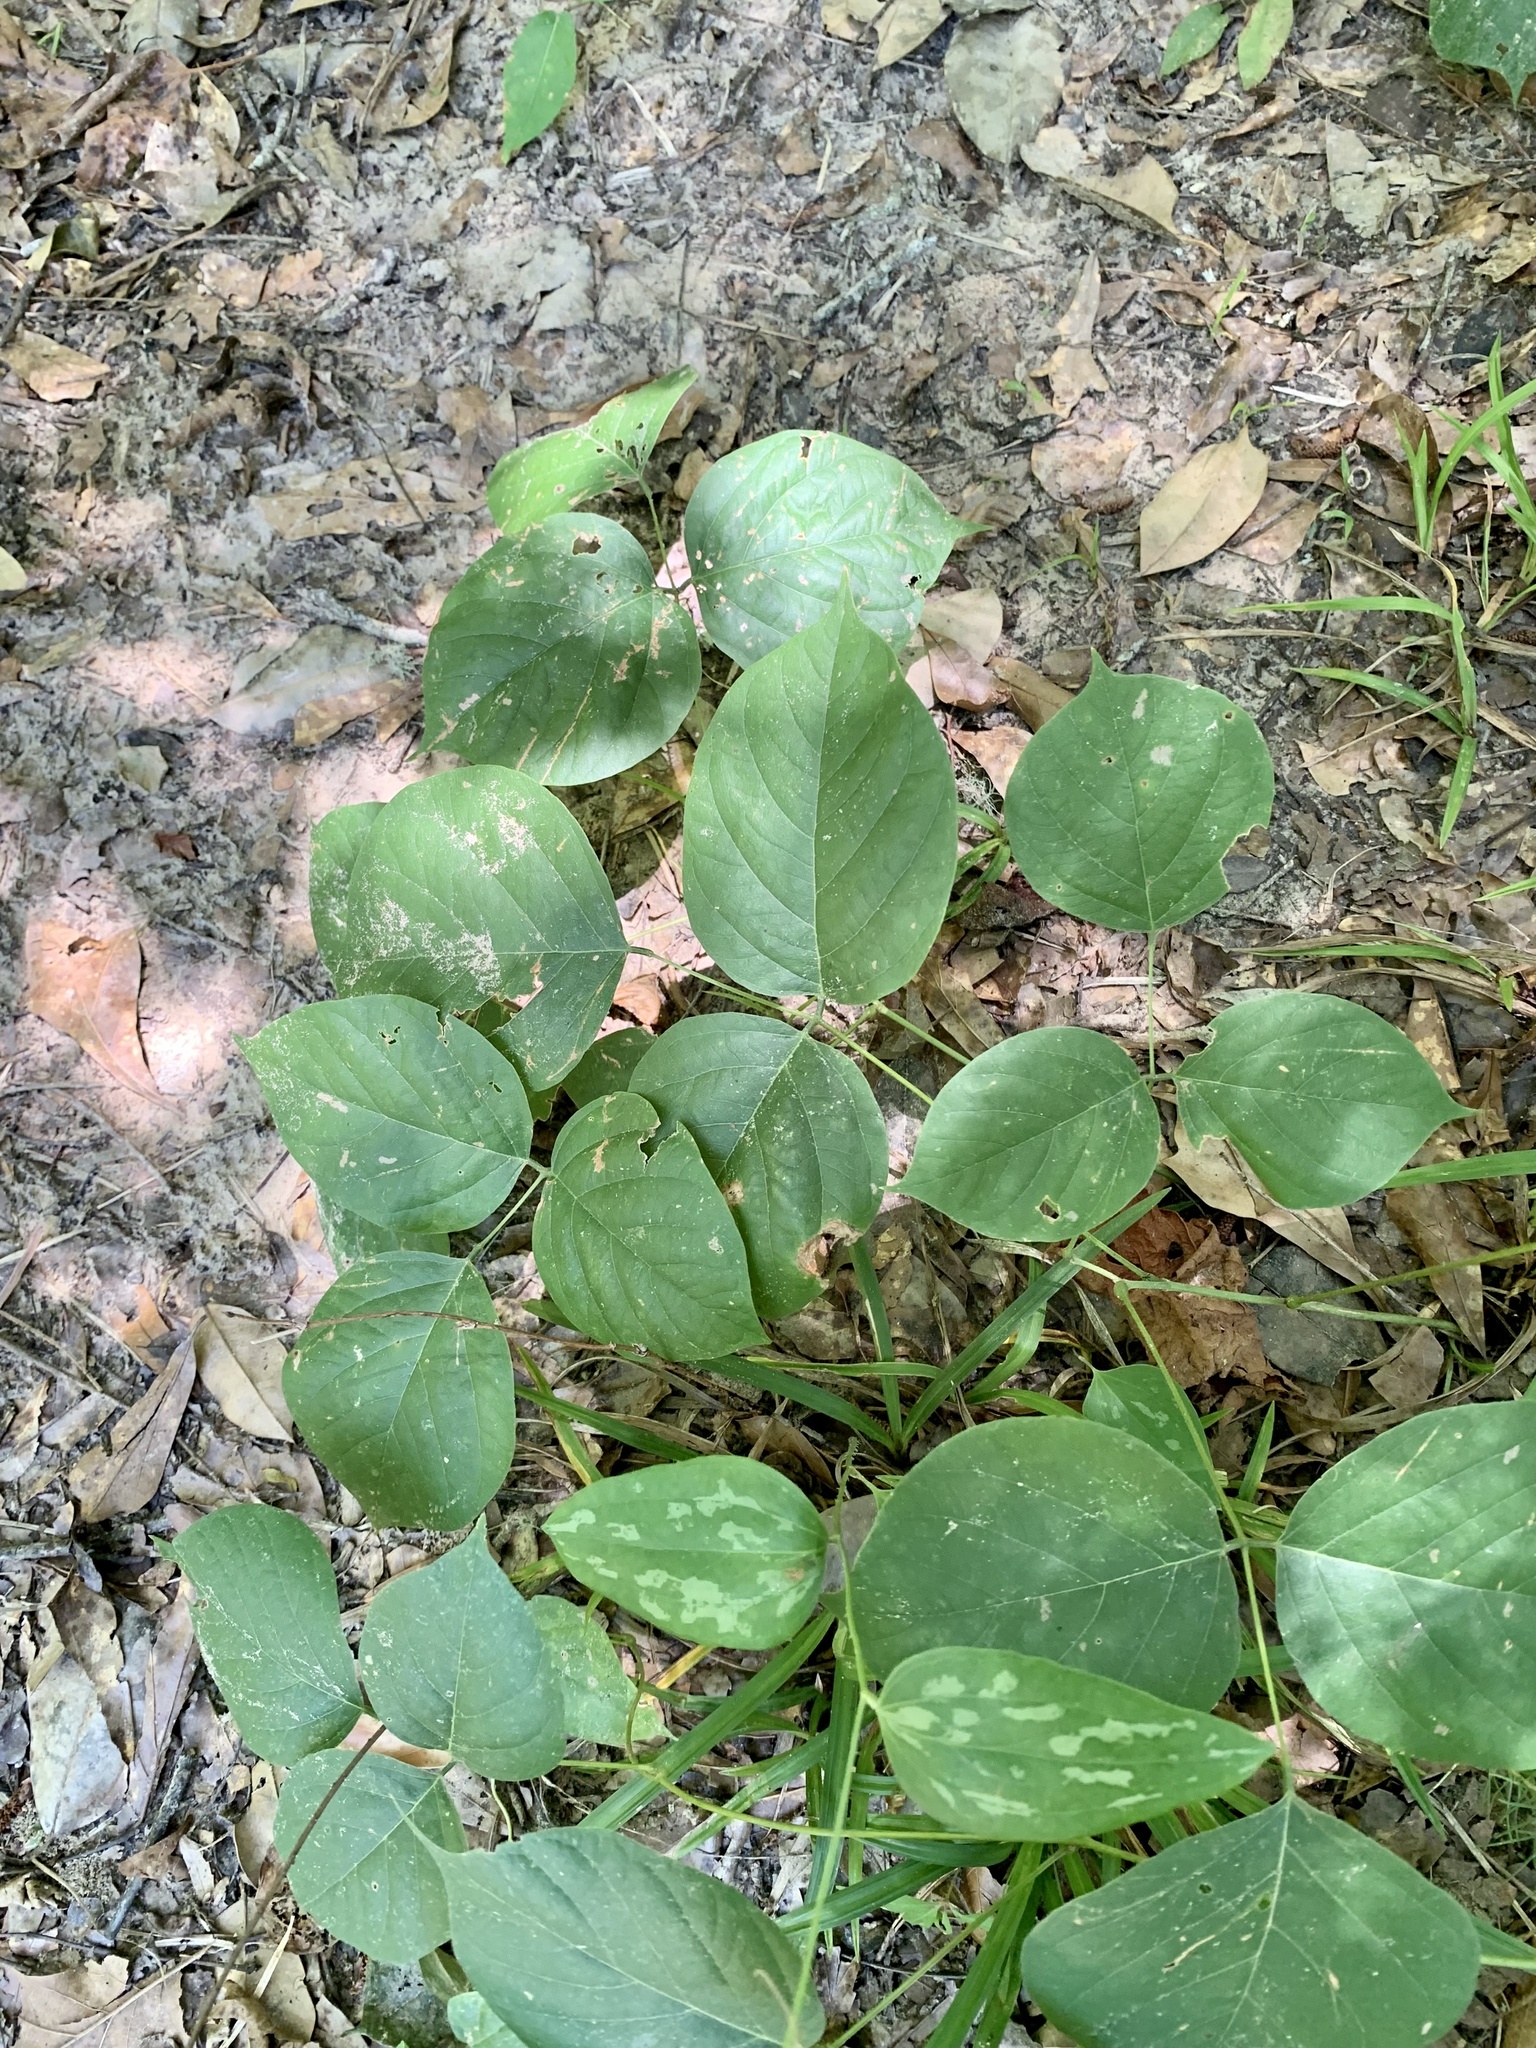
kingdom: Plantae
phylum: Tracheophyta
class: Magnoliopsida
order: Fabales
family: Fabaceae
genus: Lackeya
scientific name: Lackeya multiflora
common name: Boykin's clusterpea
